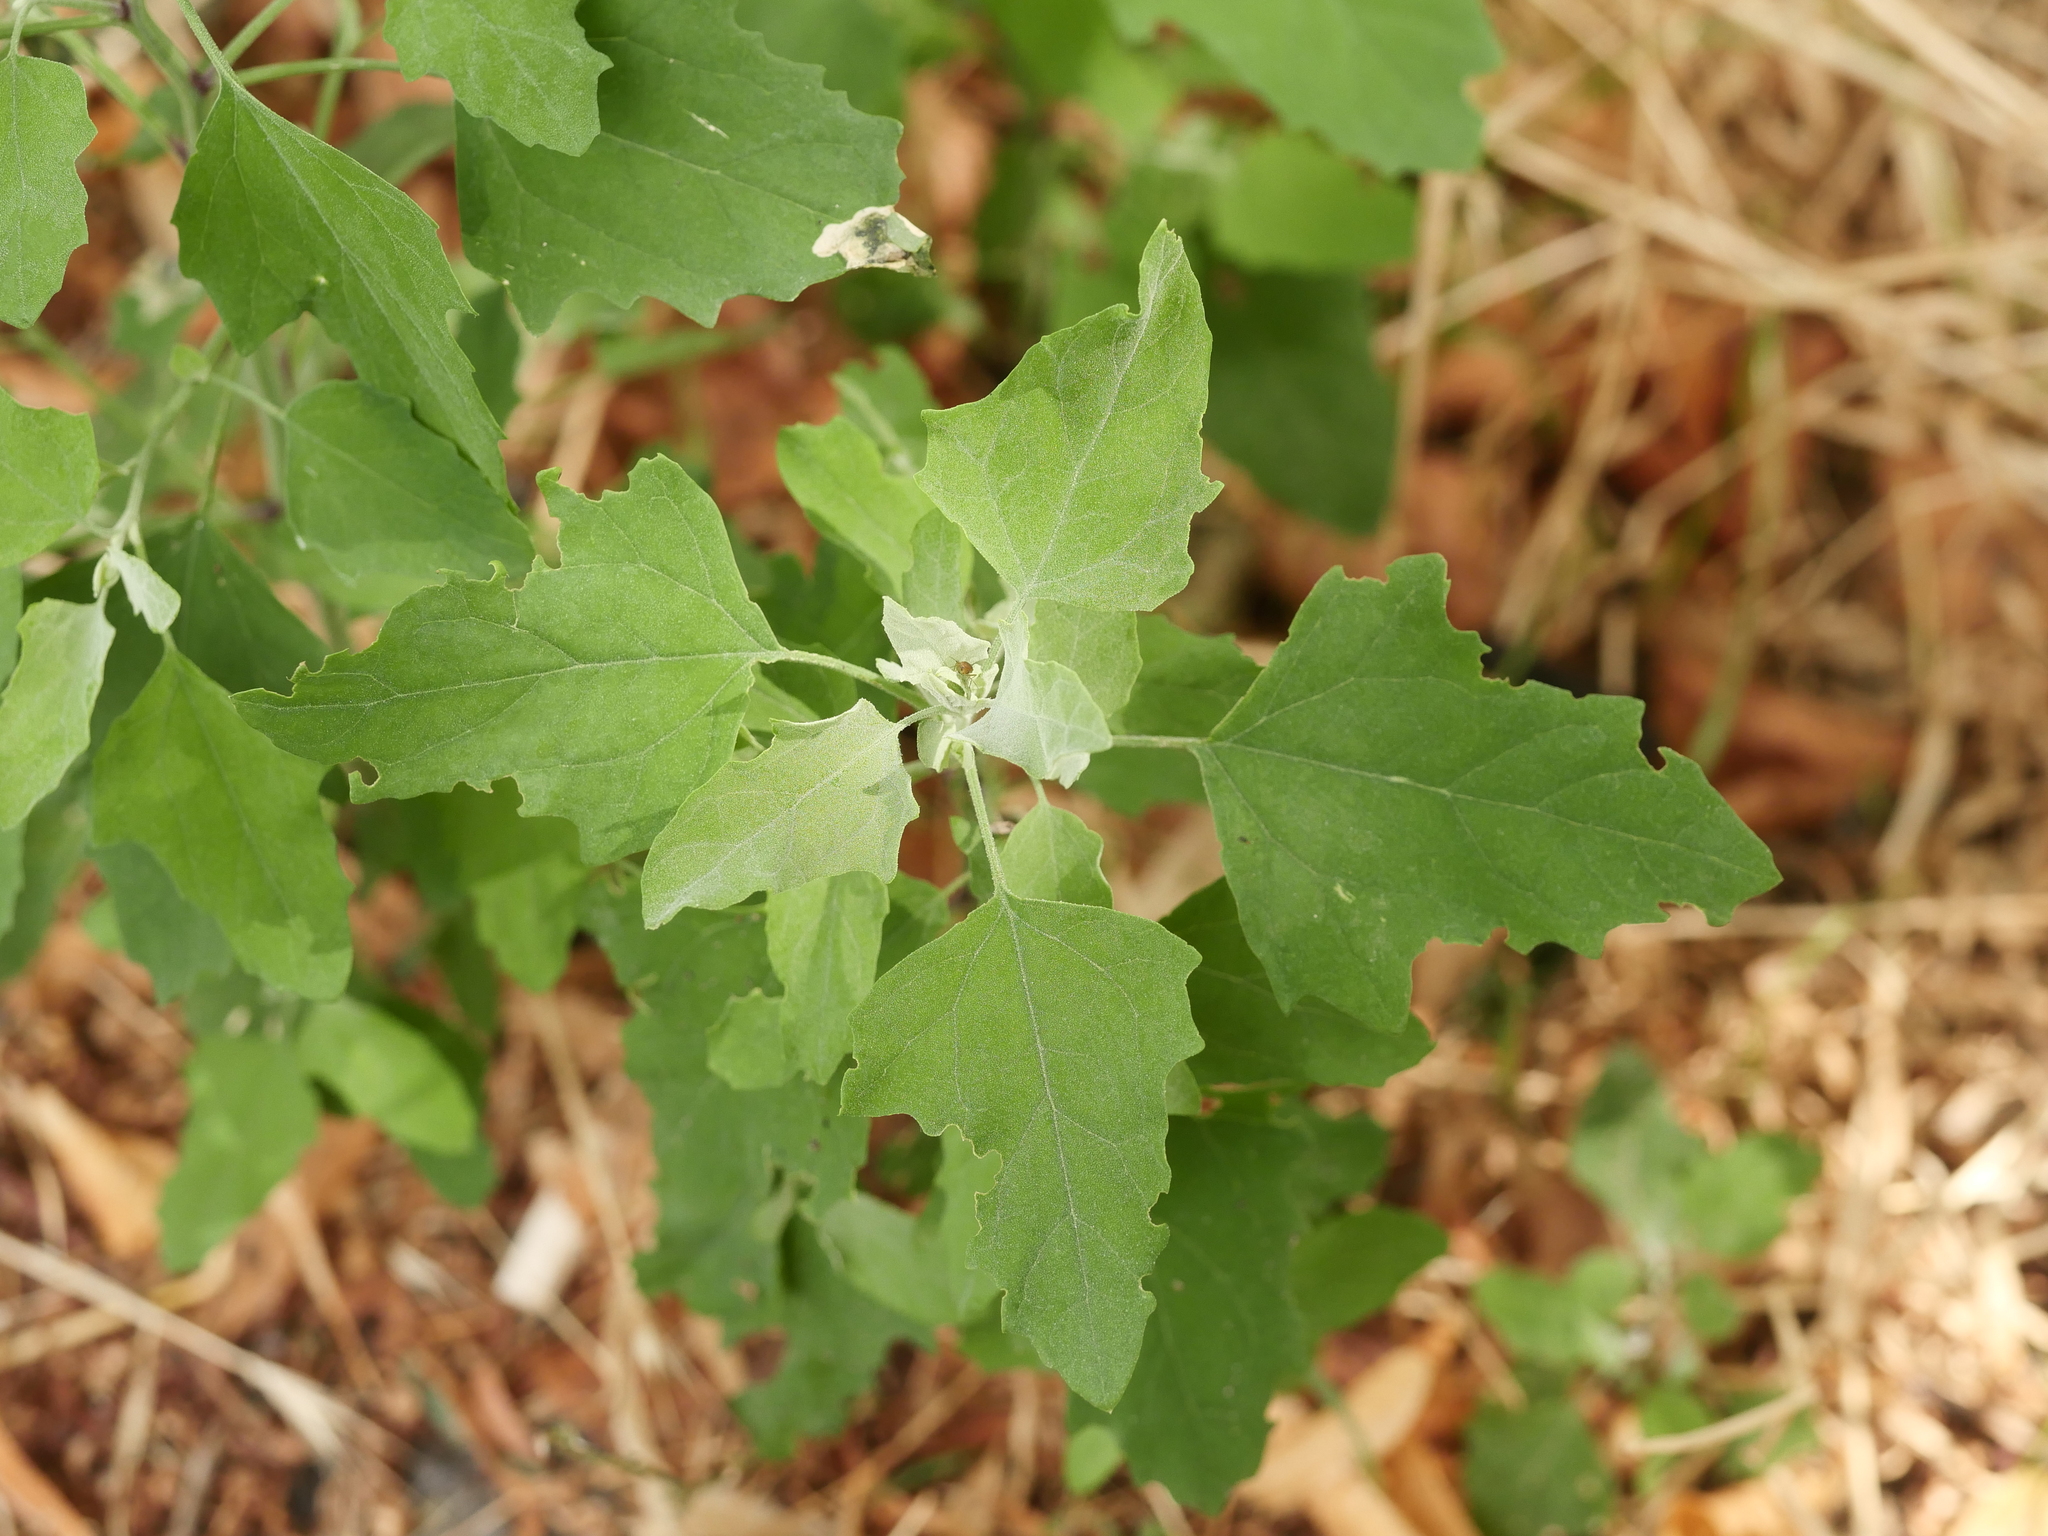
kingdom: Plantae
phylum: Tracheophyta
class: Magnoliopsida
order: Caryophyllales
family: Amaranthaceae
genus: Chenopodium
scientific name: Chenopodium album
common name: Fat-hen
